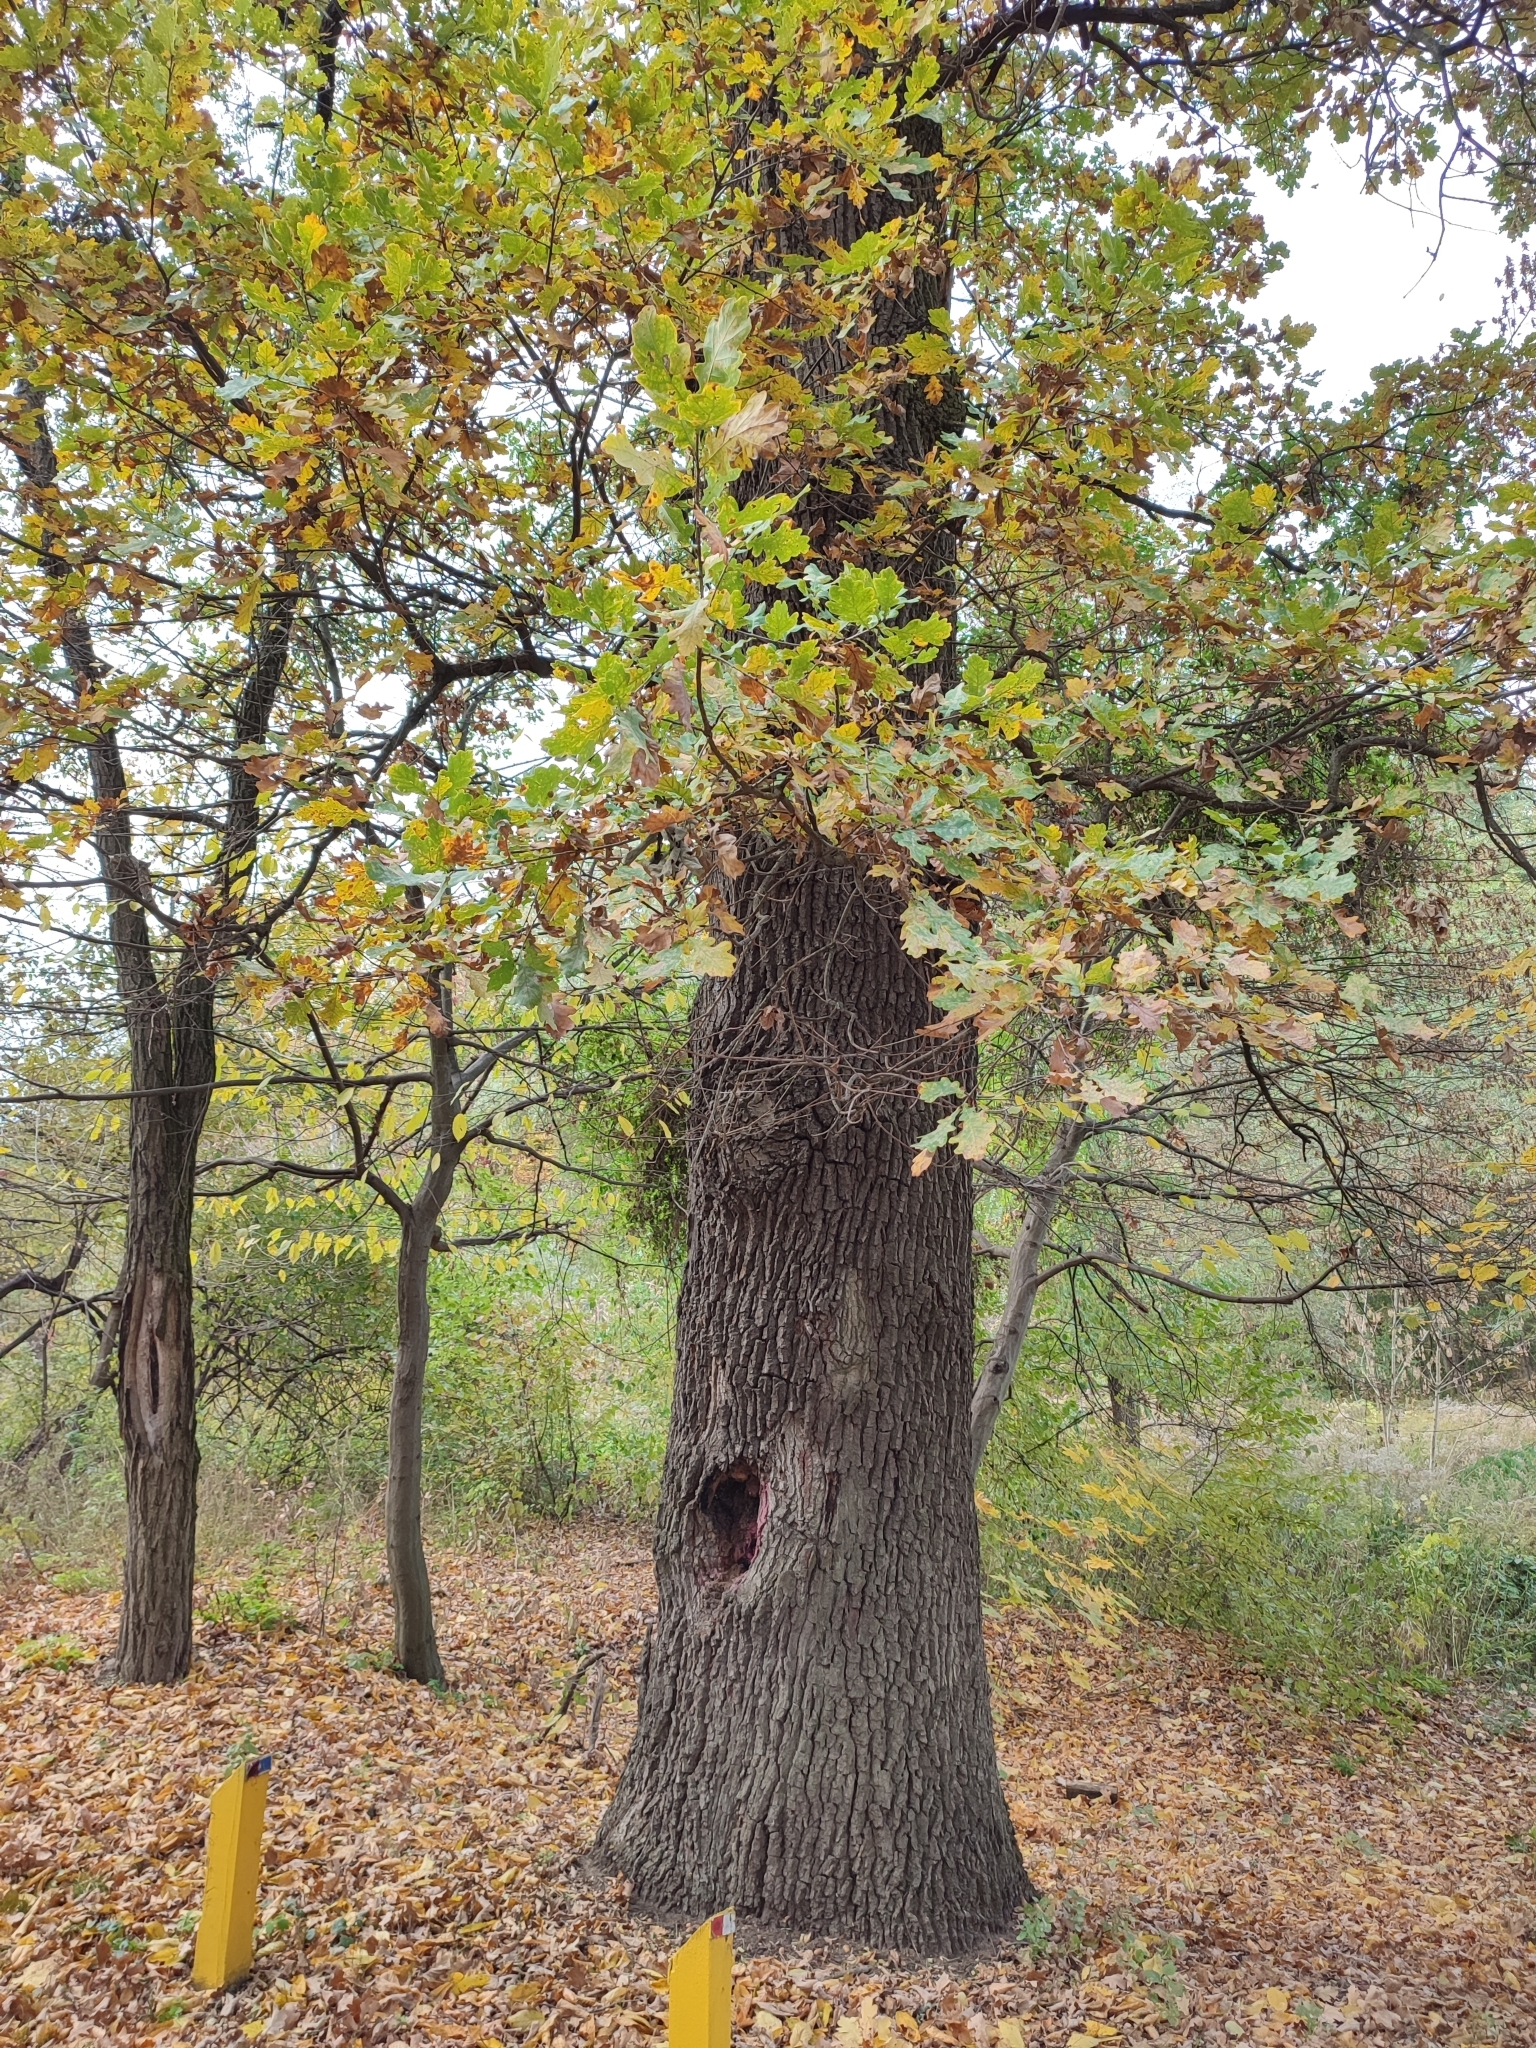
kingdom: Plantae
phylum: Tracheophyta
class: Magnoliopsida
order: Fagales
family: Fagaceae
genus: Quercus
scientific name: Quercus robur
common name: Pedunculate oak
